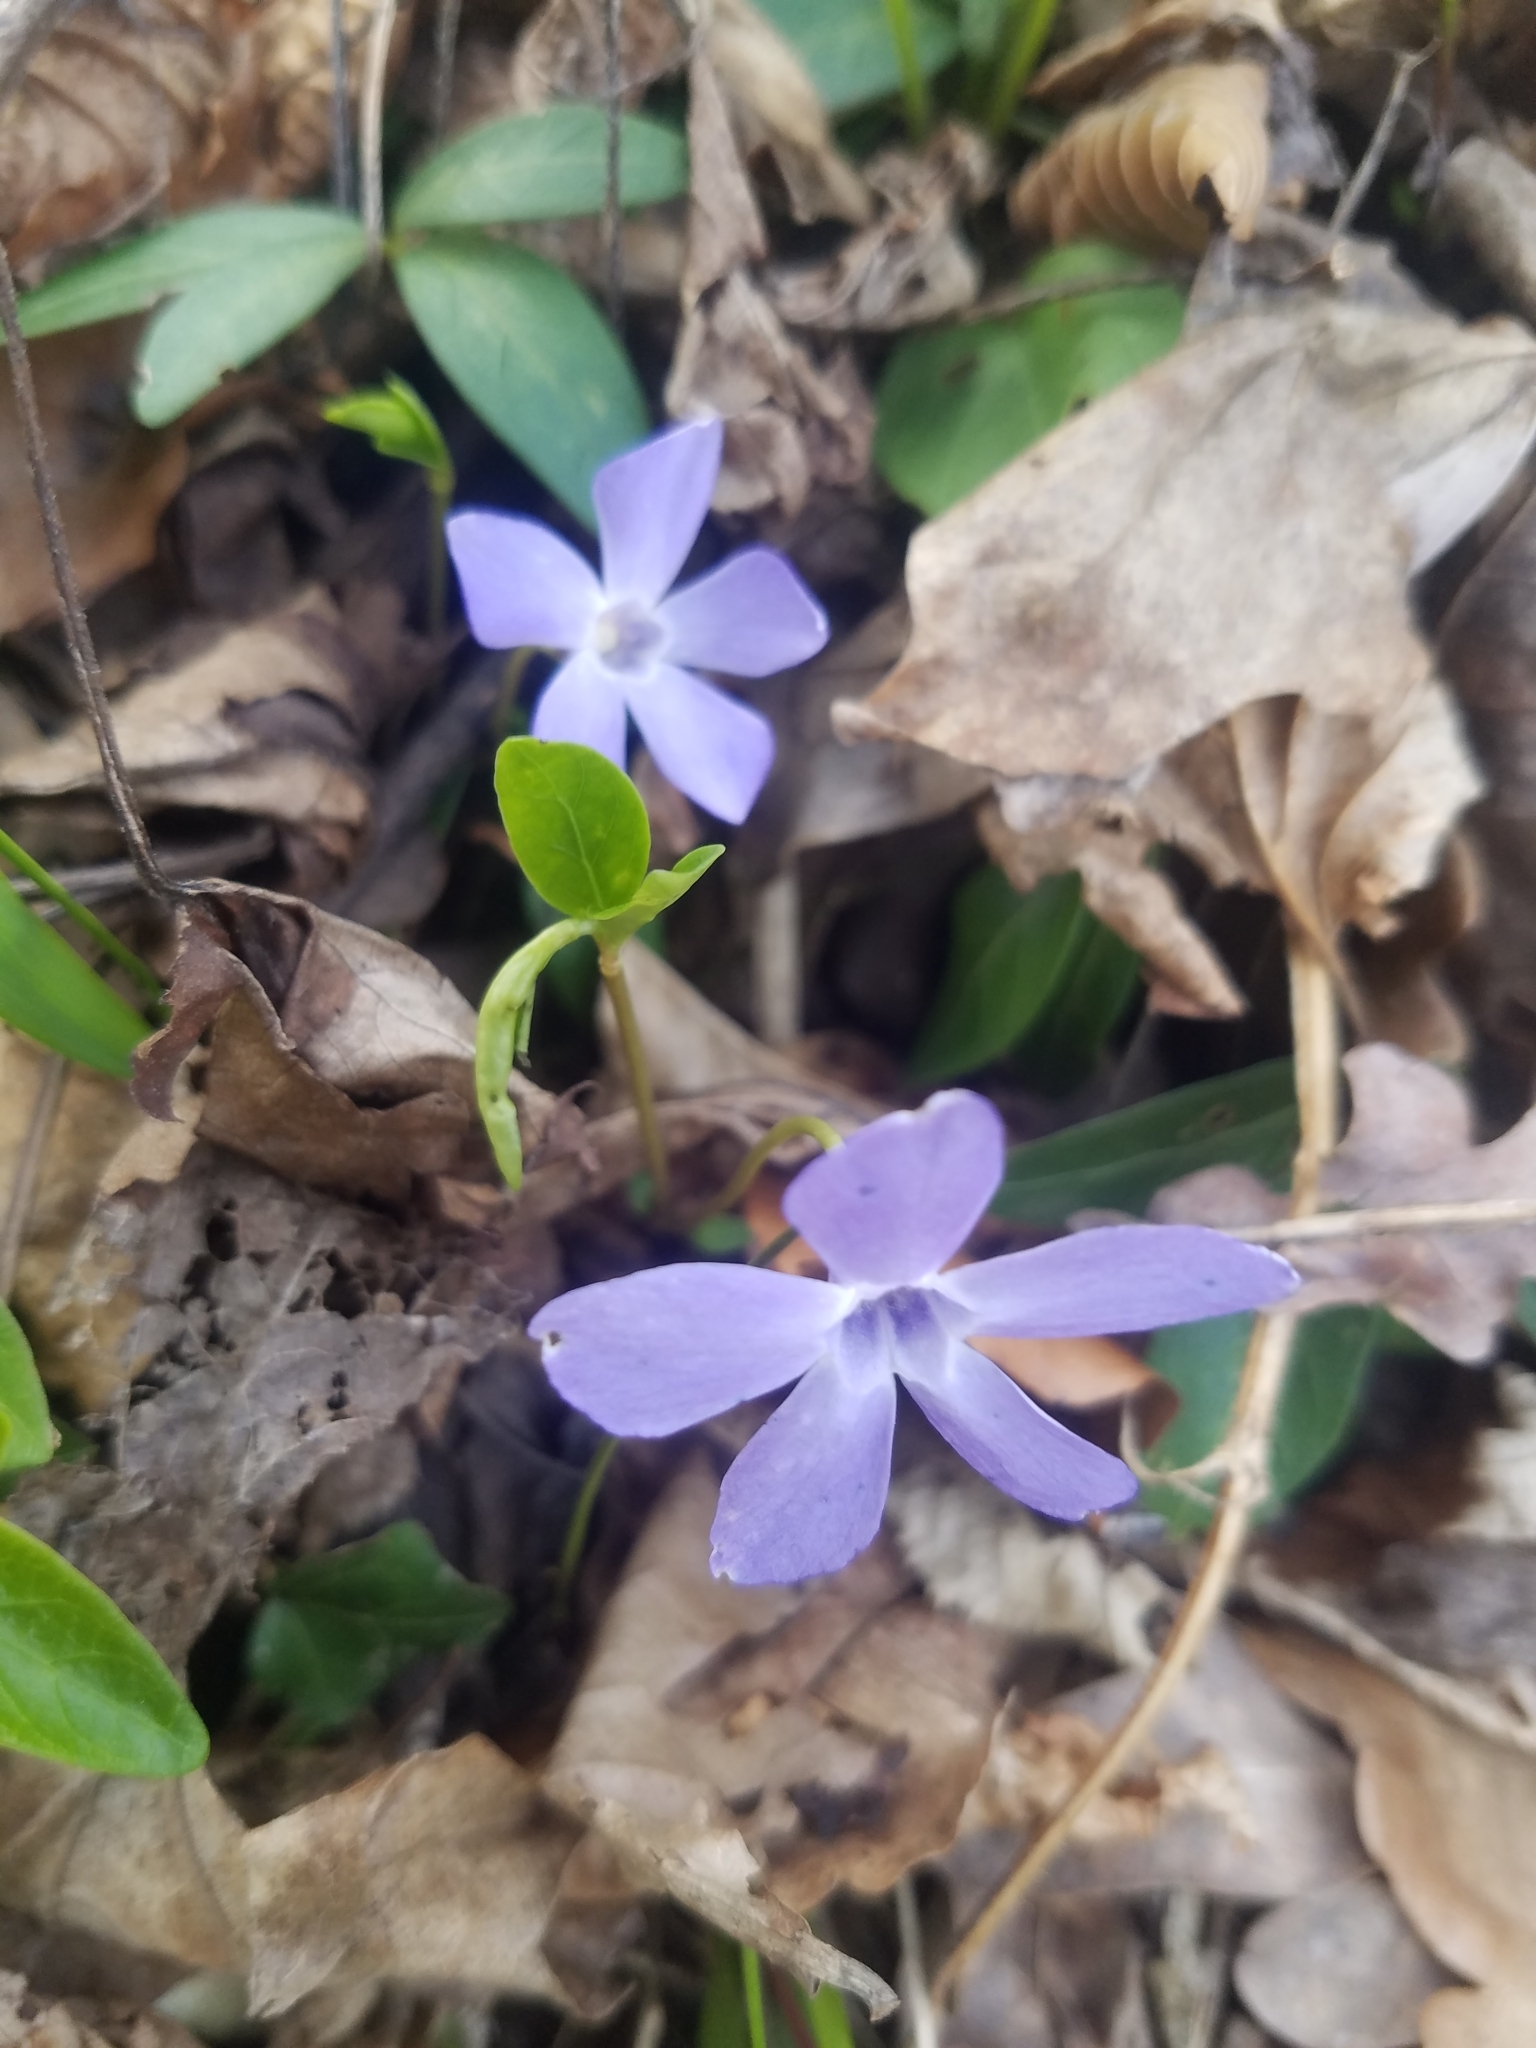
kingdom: Plantae
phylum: Tracheophyta
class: Magnoliopsida
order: Gentianales
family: Apocynaceae
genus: Vinca
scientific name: Vinca minor
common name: Lesser periwinkle
